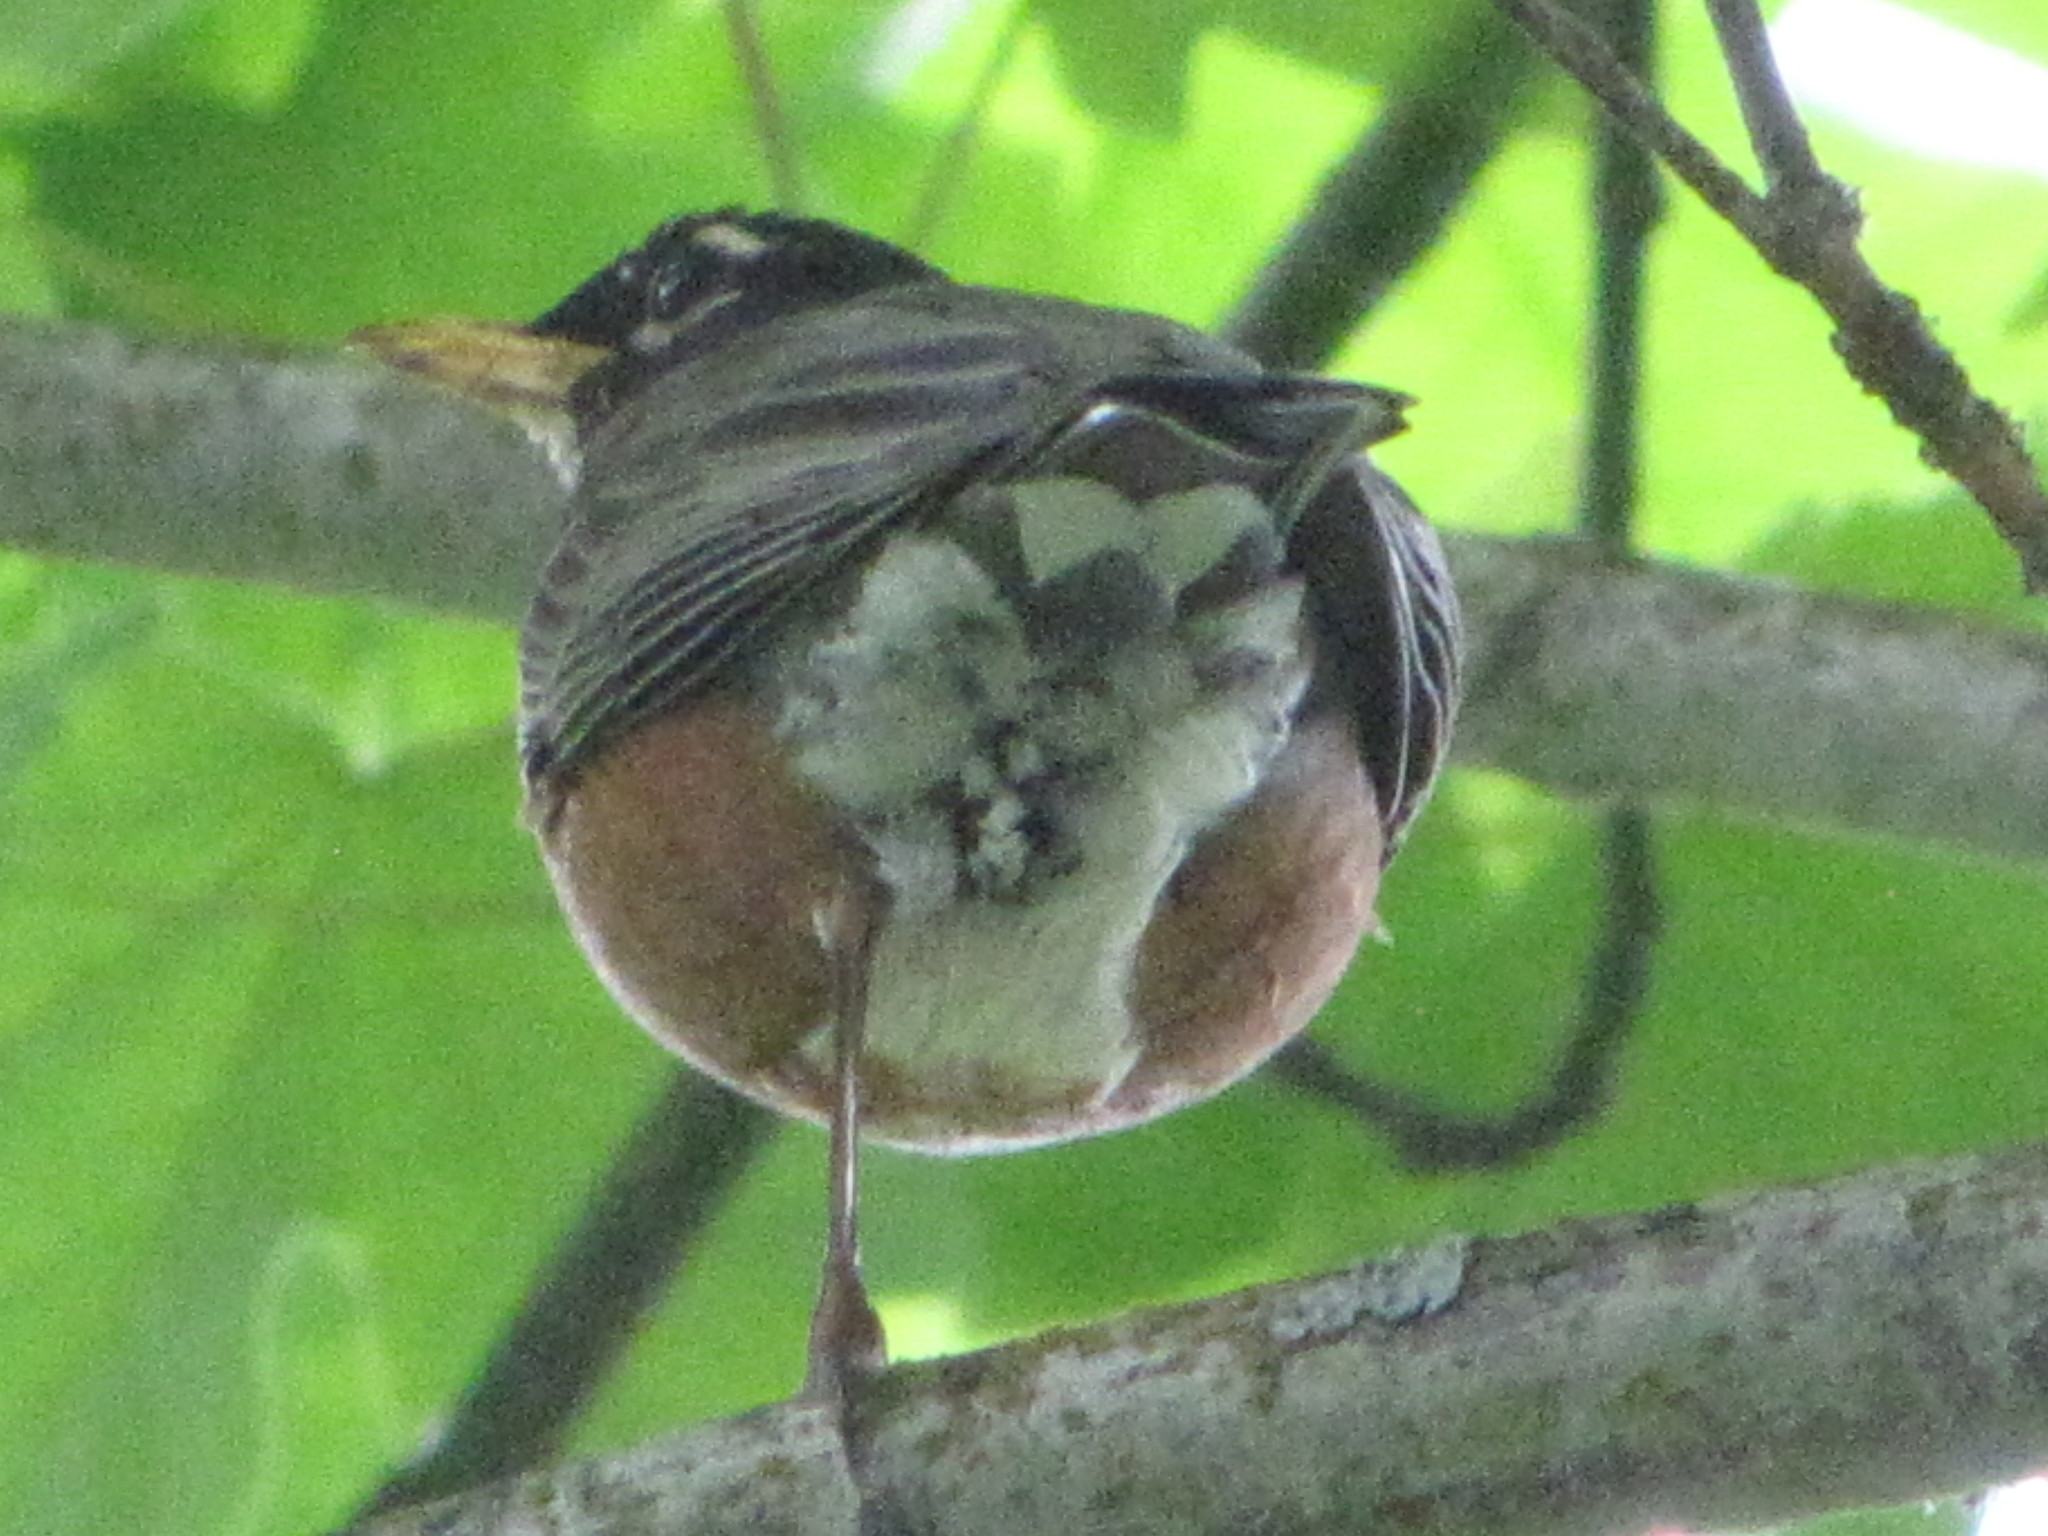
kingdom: Animalia
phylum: Chordata
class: Aves
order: Passeriformes
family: Turdidae
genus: Turdus
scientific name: Turdus migratorius
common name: American robin
